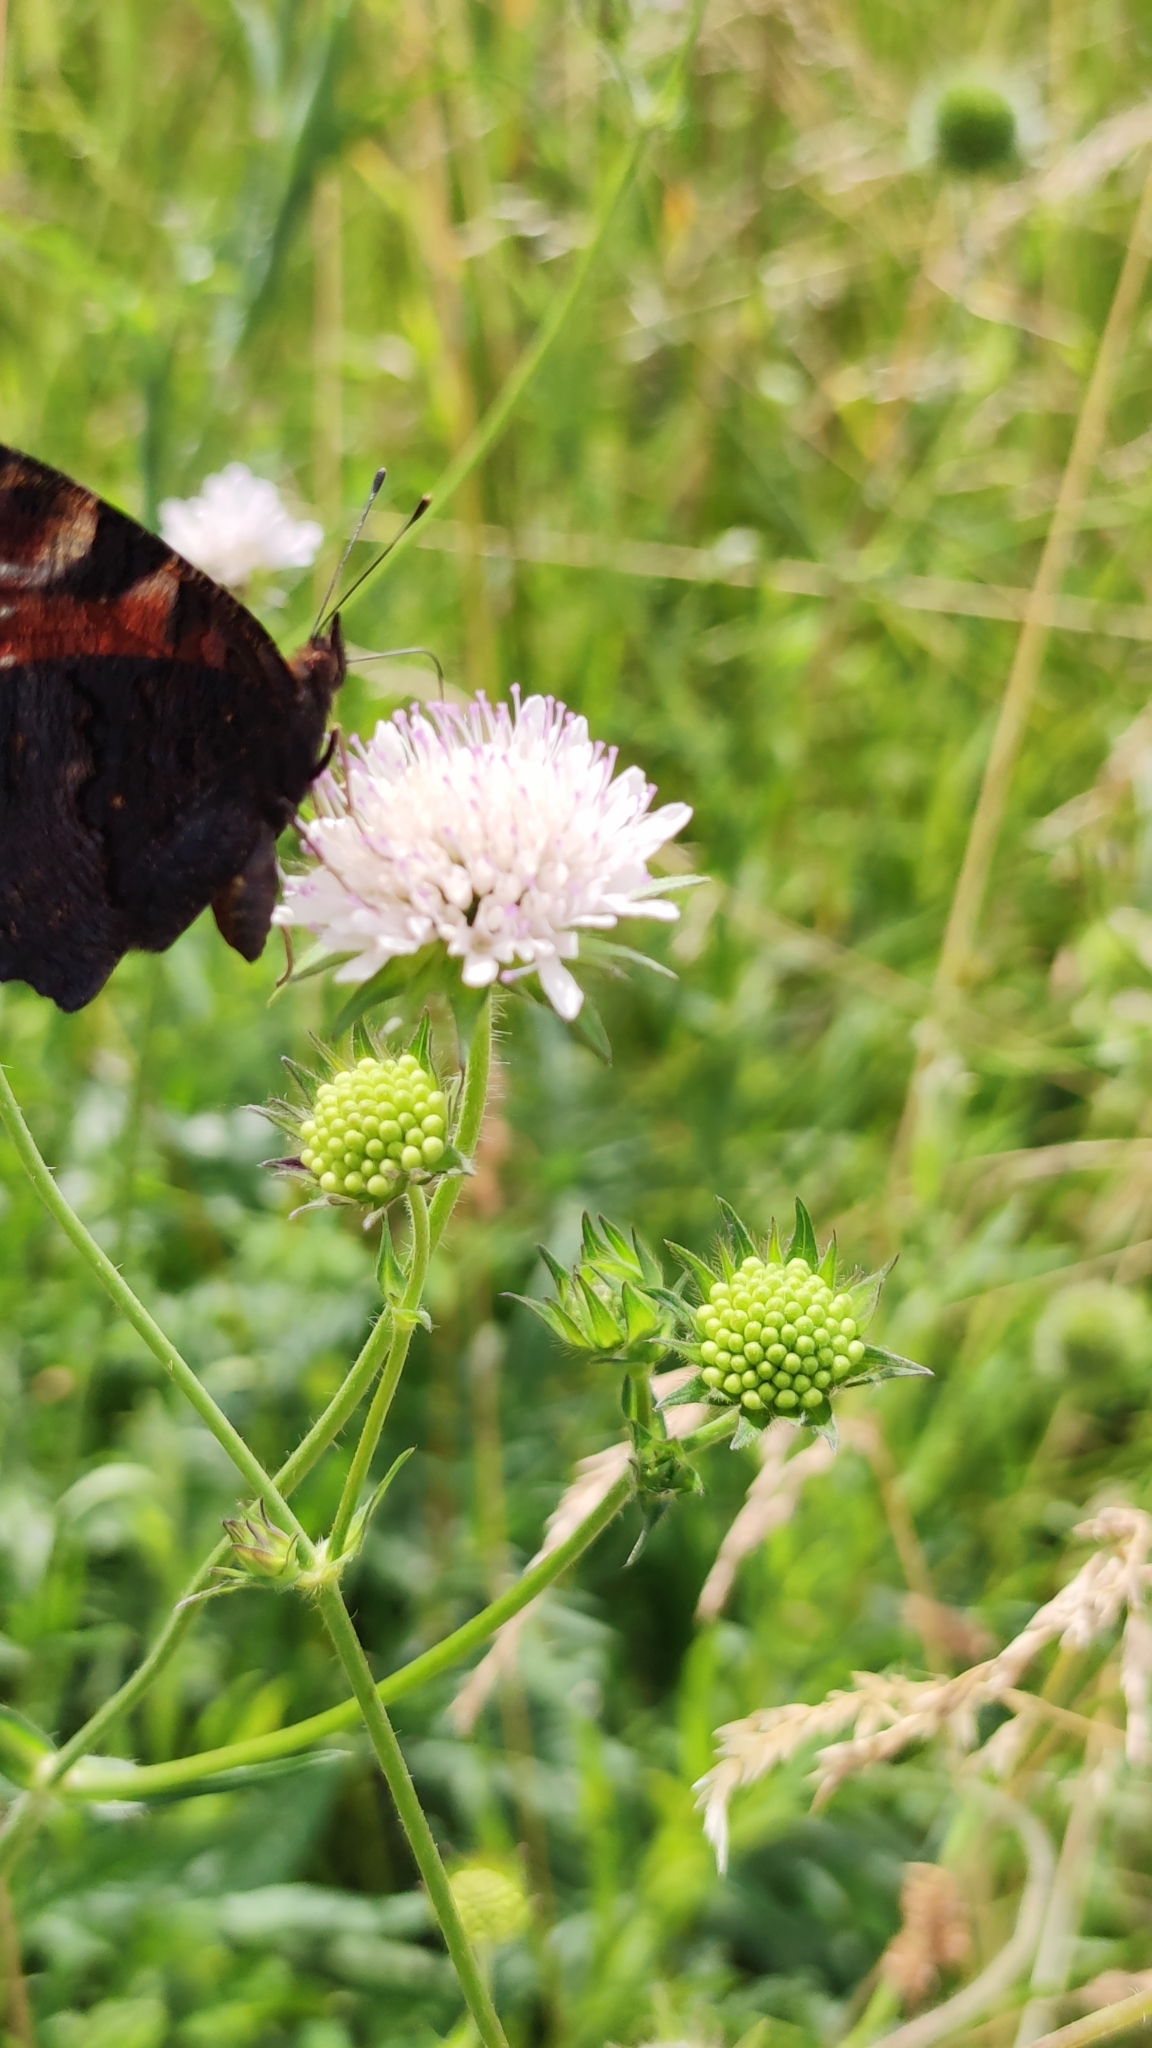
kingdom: Animalia
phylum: Arthropoda
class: Insecta
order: Lepidoptera
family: Nymphalidae
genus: Aglais
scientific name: Aglais io
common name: Peacock
